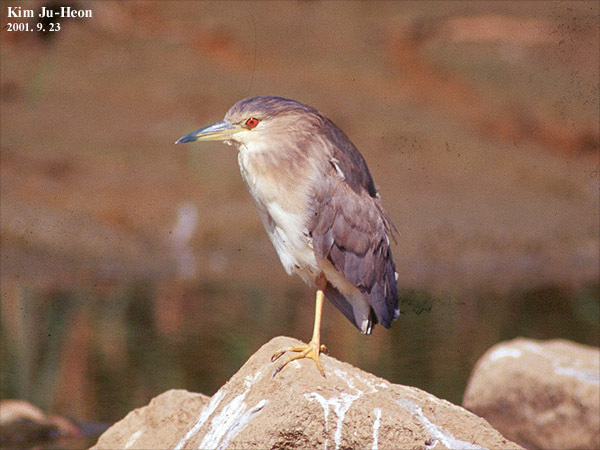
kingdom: Animalia
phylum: Chordata
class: Aves
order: Pelecaniformes
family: Ardeidae
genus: Nycticorax
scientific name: Nycticorax nycticorax
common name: Black-crowned night heron
